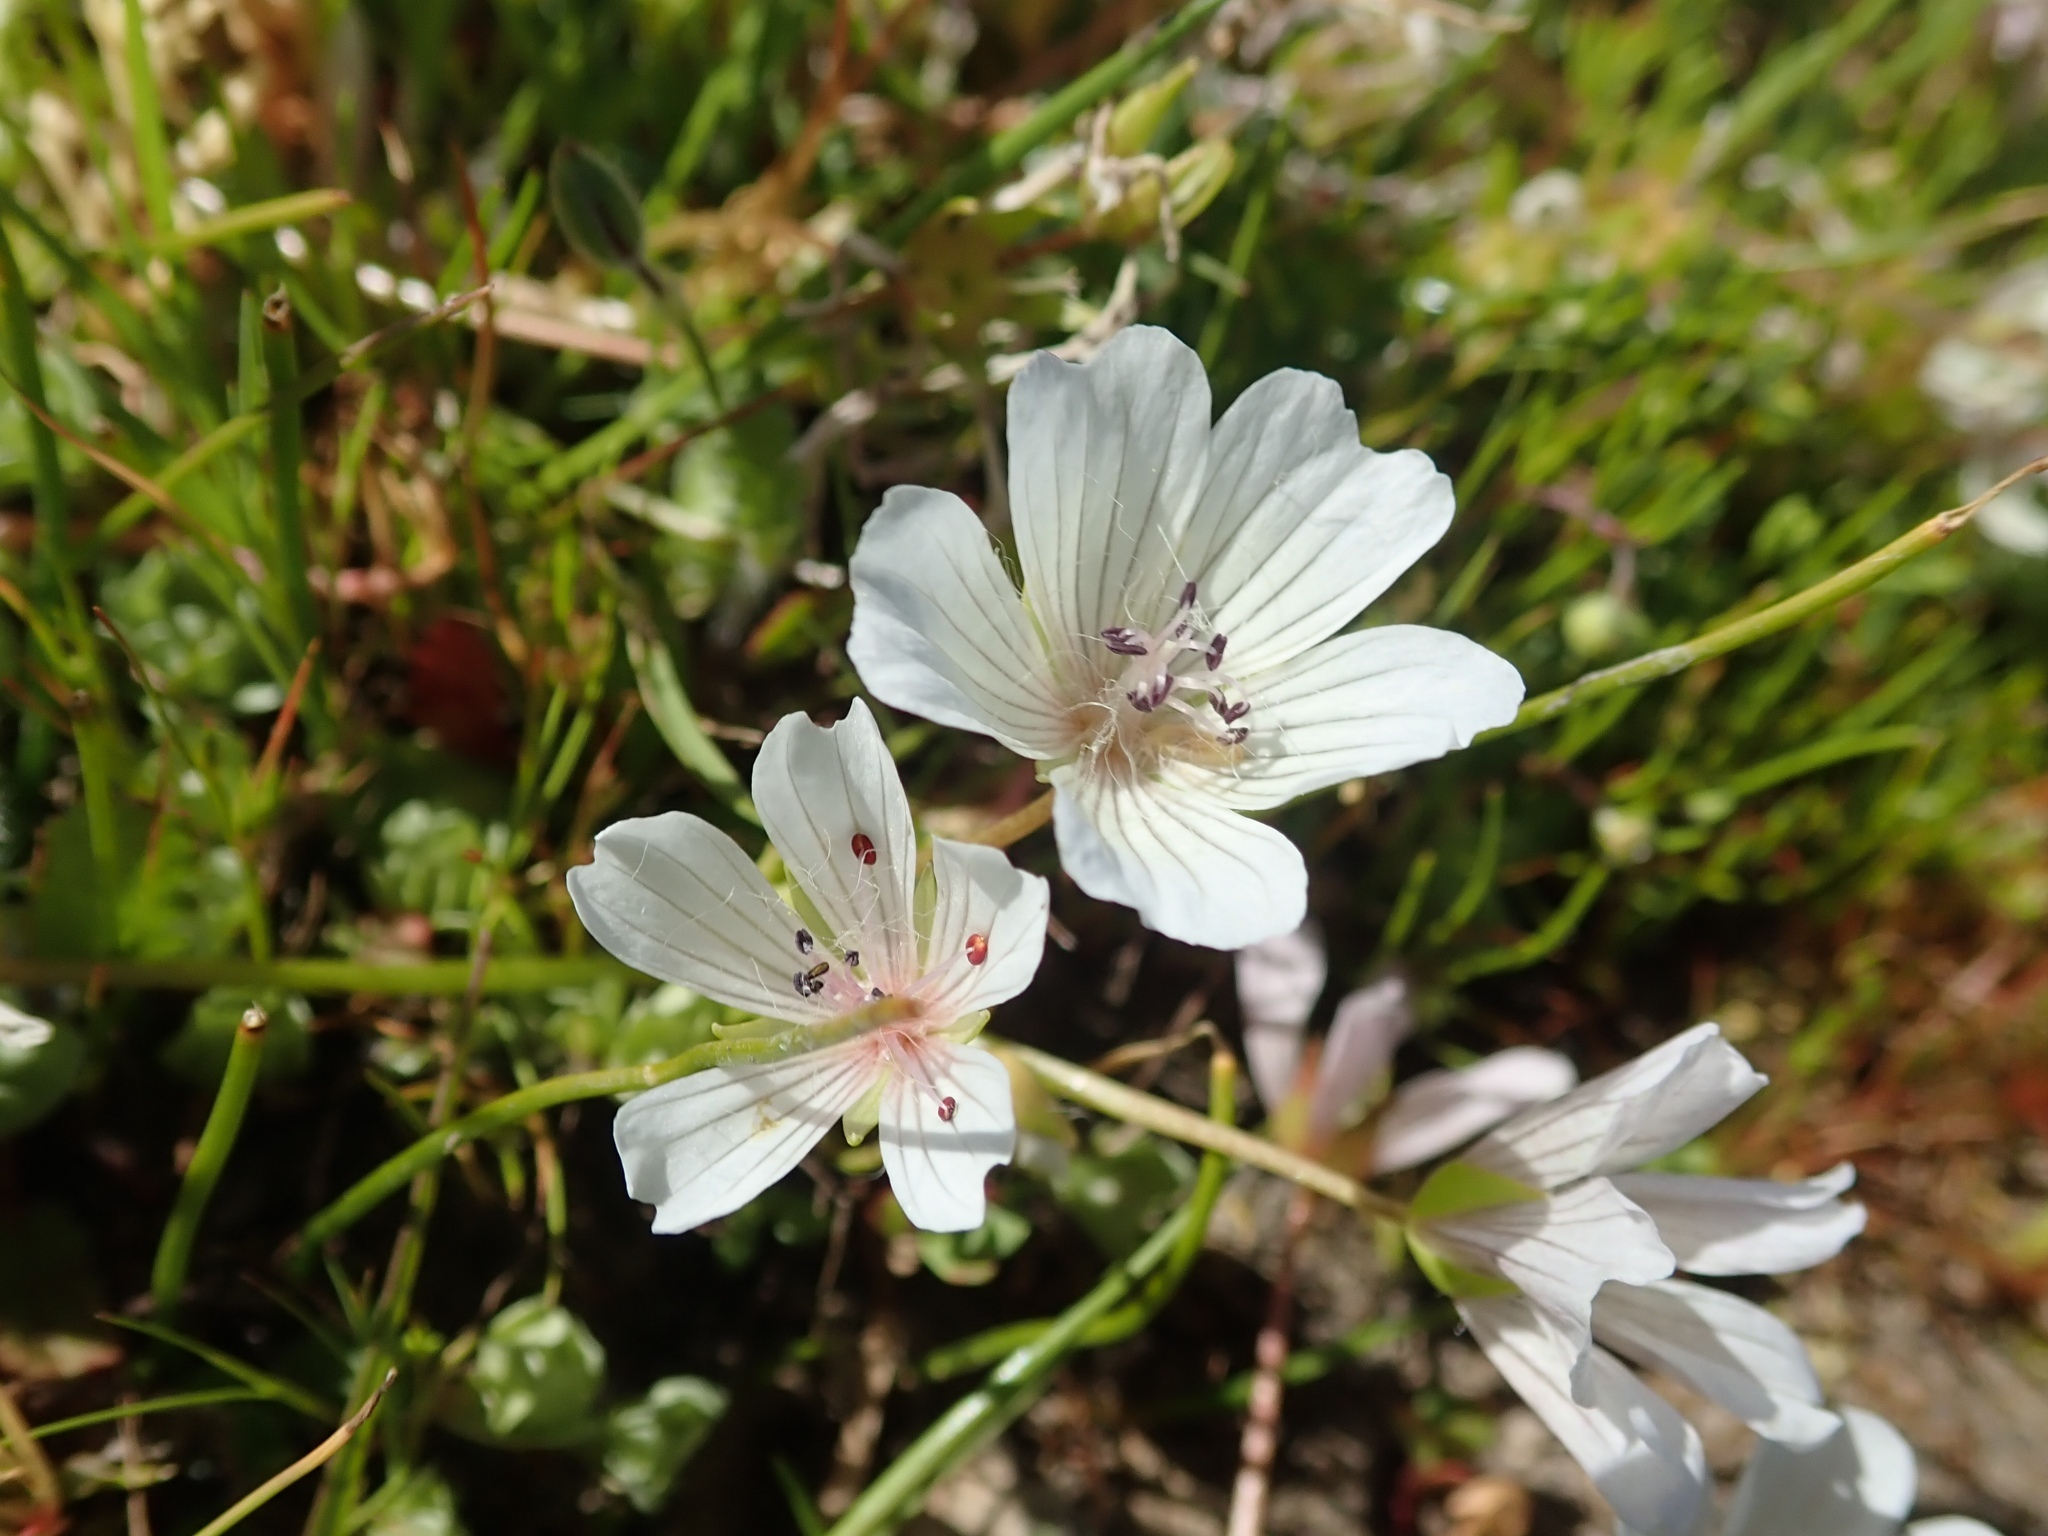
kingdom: Plantae
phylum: Tracheophyta
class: Magnoliopsida
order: Brassicales
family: Limnanthaceae
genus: Limnanthes
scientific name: Limnanthes douglasii
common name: Meadow-foam
